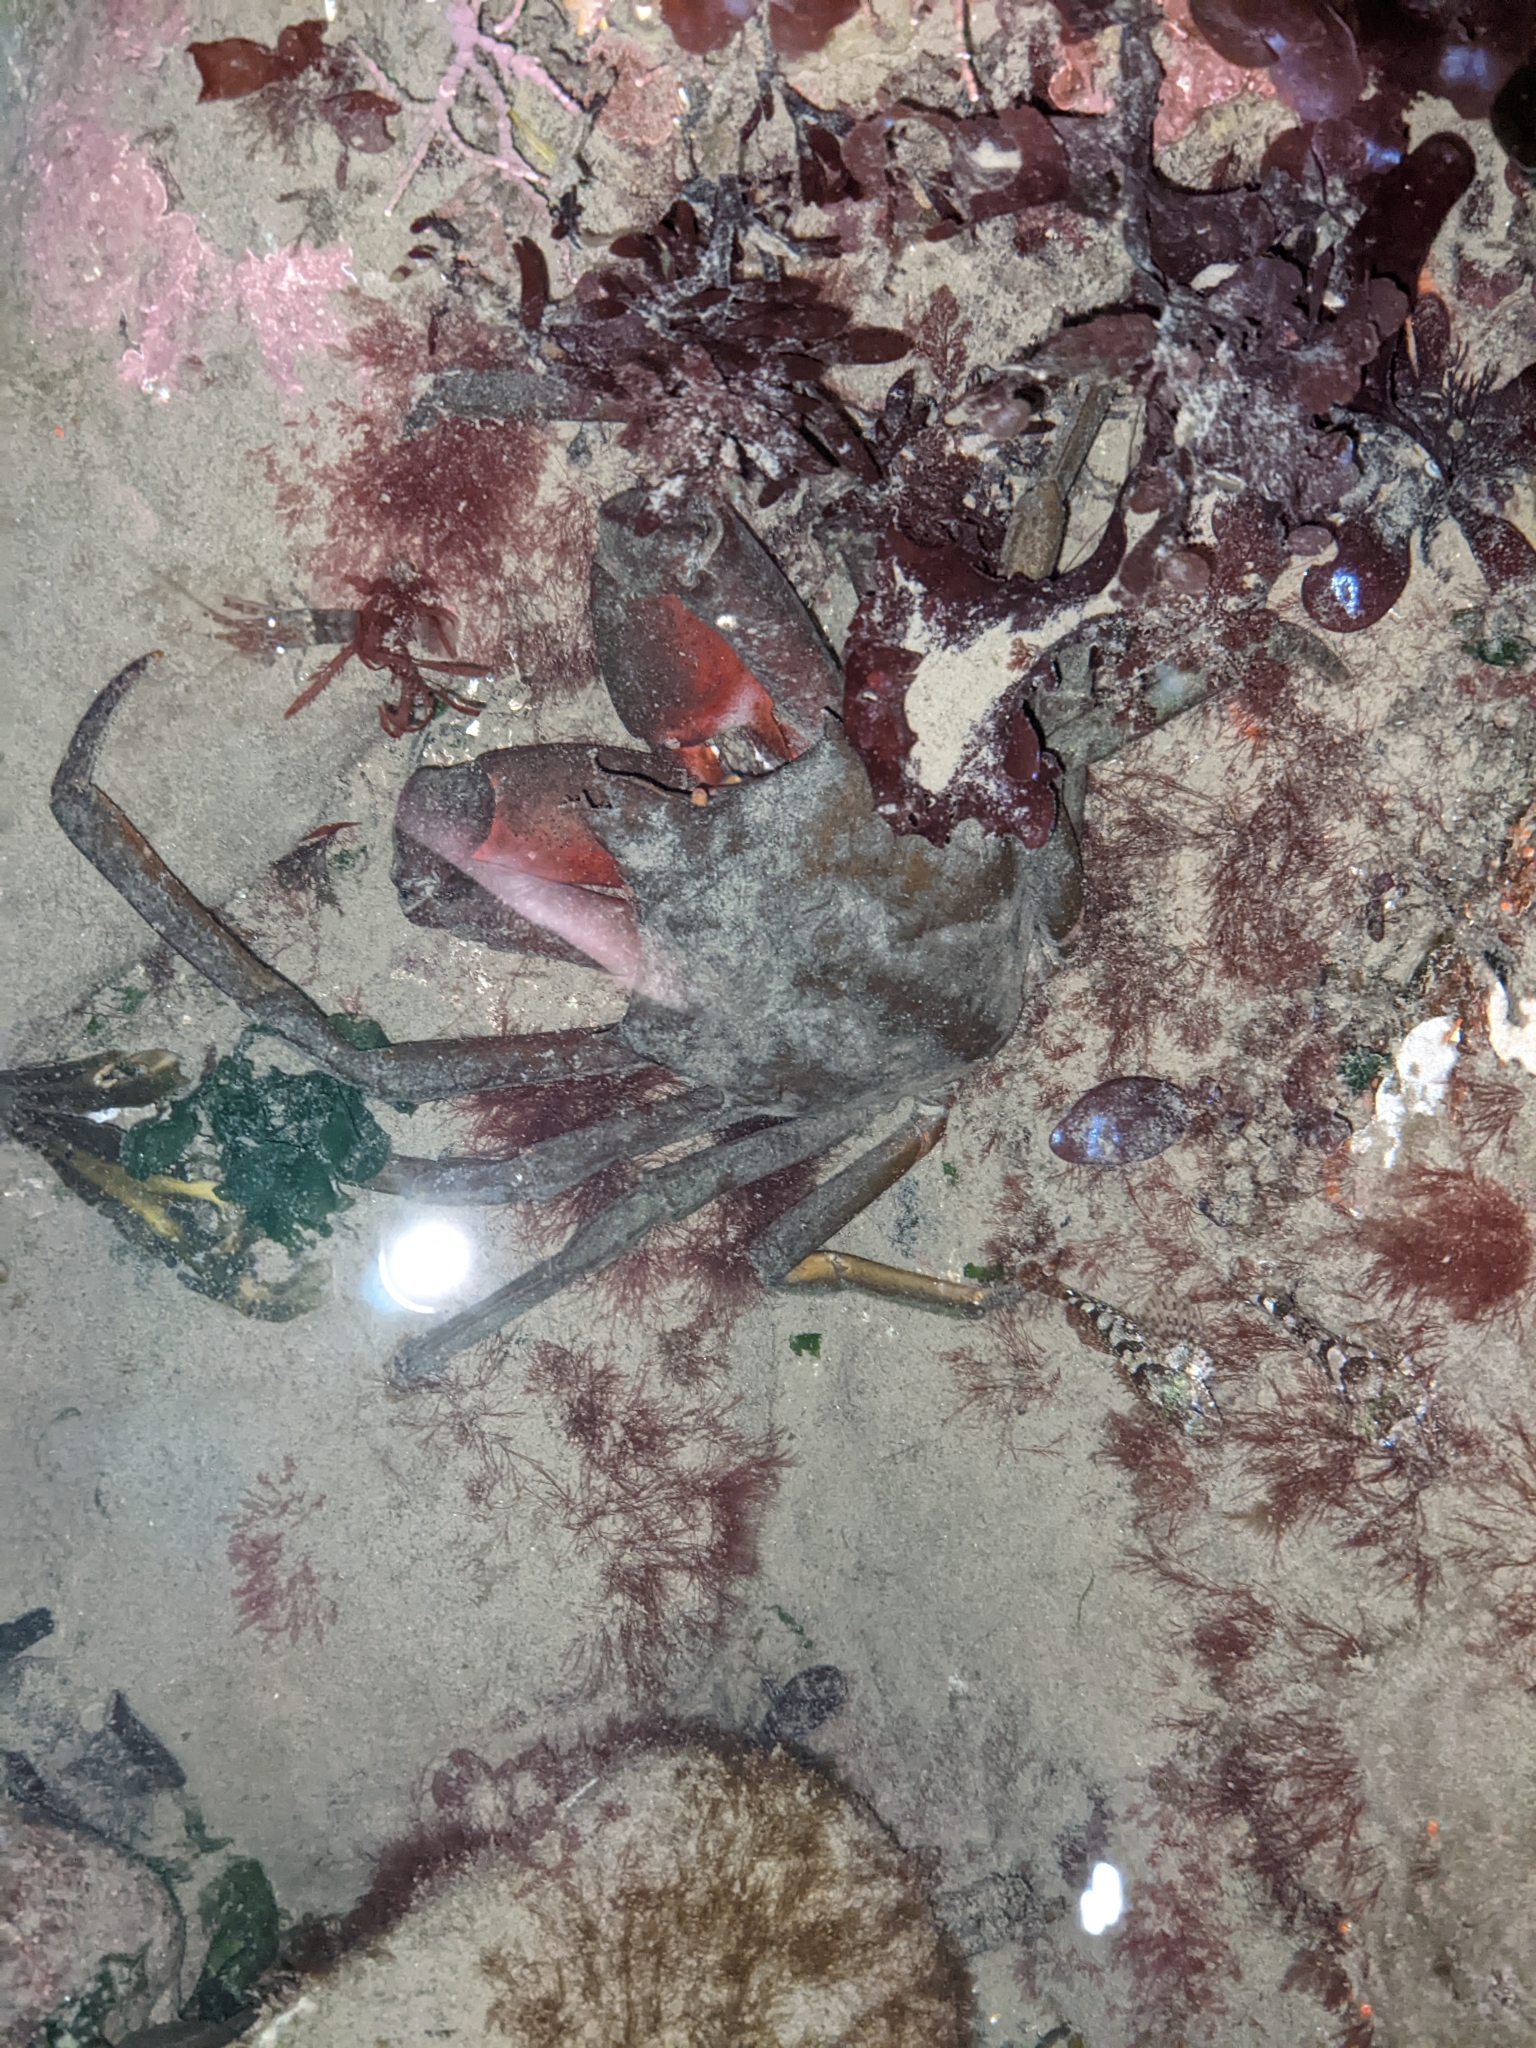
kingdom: Animalia
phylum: Arthropoda
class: Malacostraca
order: Decapoda
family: Epialtidae
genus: Pugettia
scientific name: Pugettia producta
